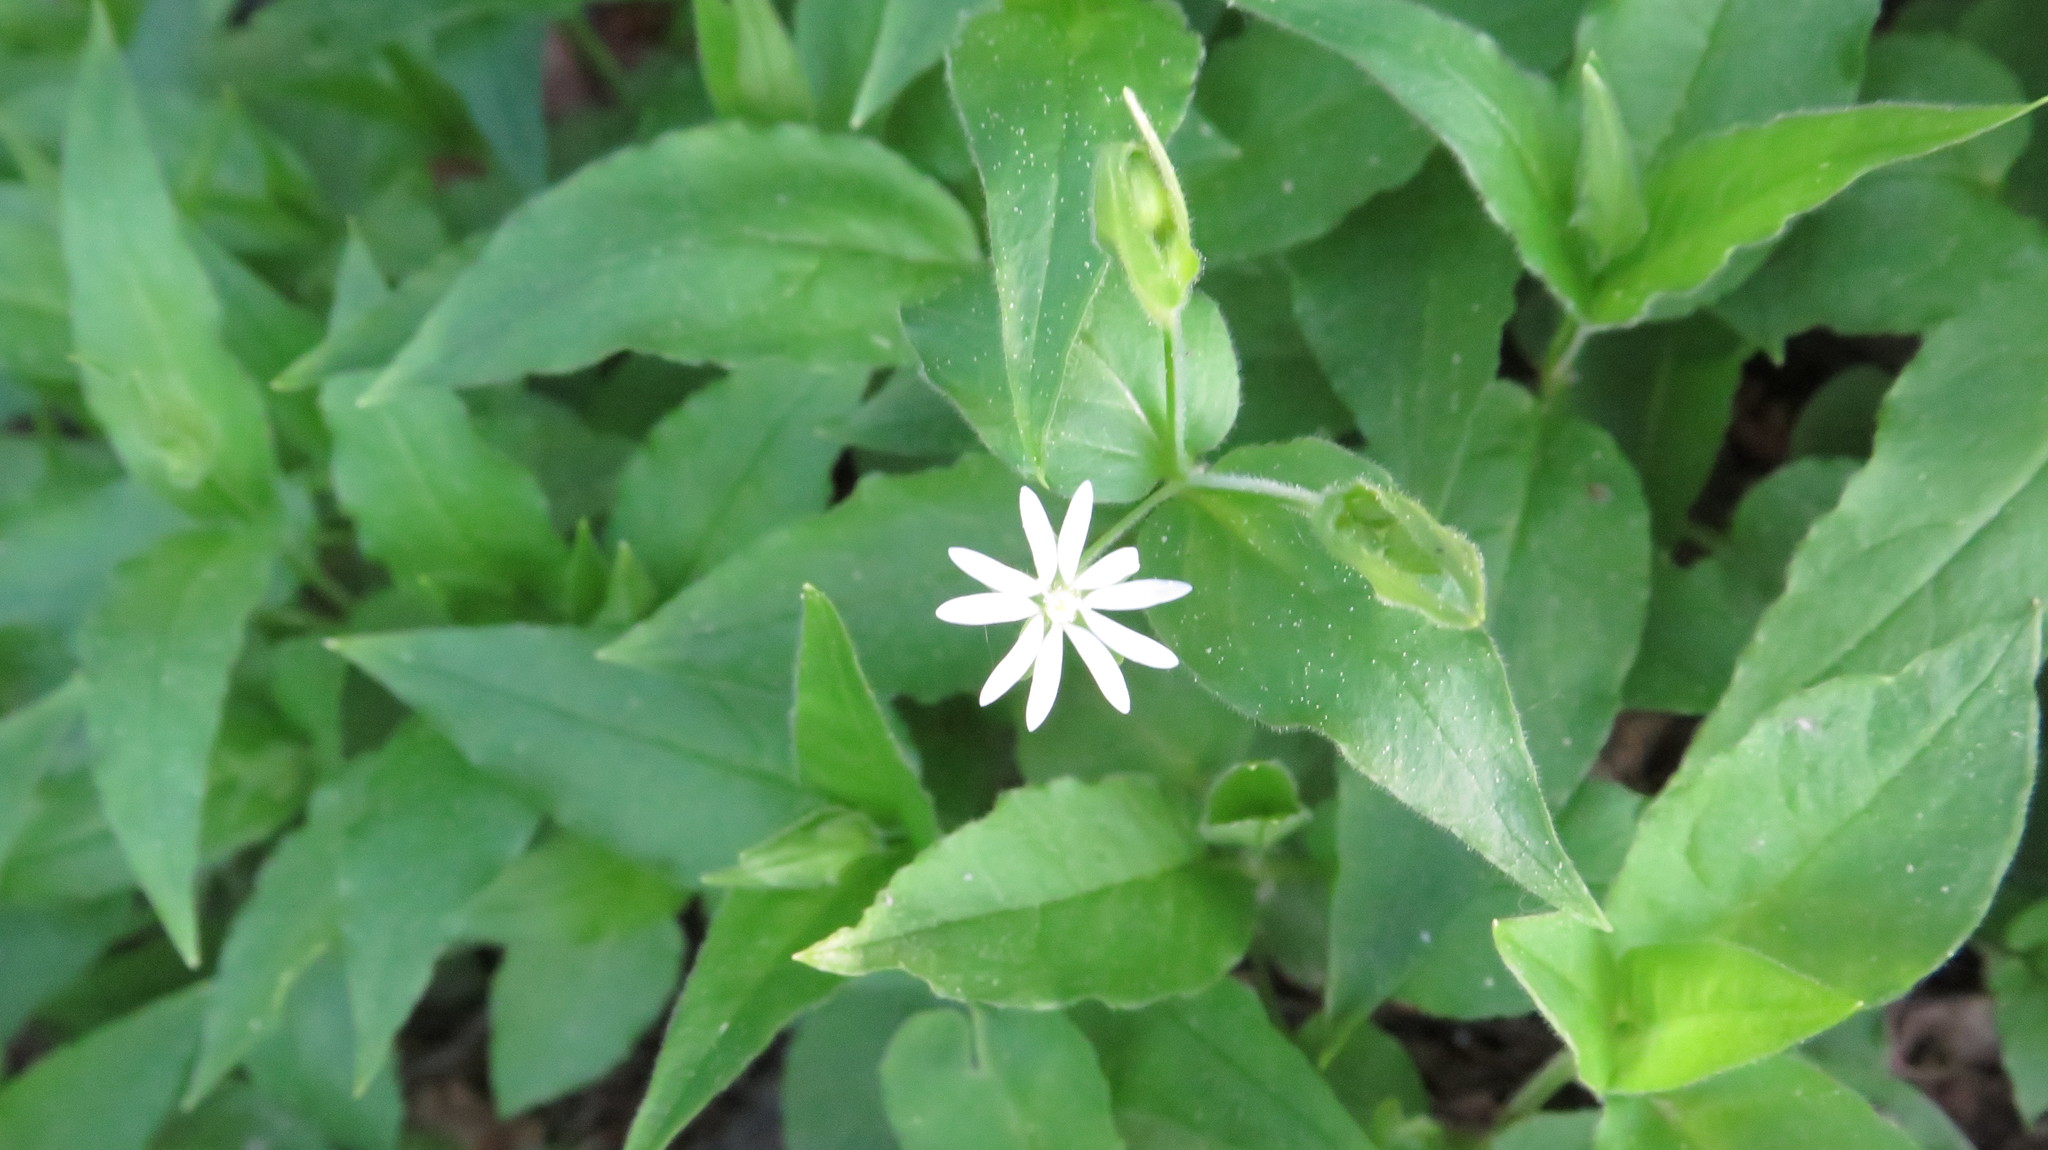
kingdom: Plantae
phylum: Tracheophyta
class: Magnoliopsida
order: Caryophyllales
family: Caryophyllaceae
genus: Stellaria
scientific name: Stellaria bungeana
